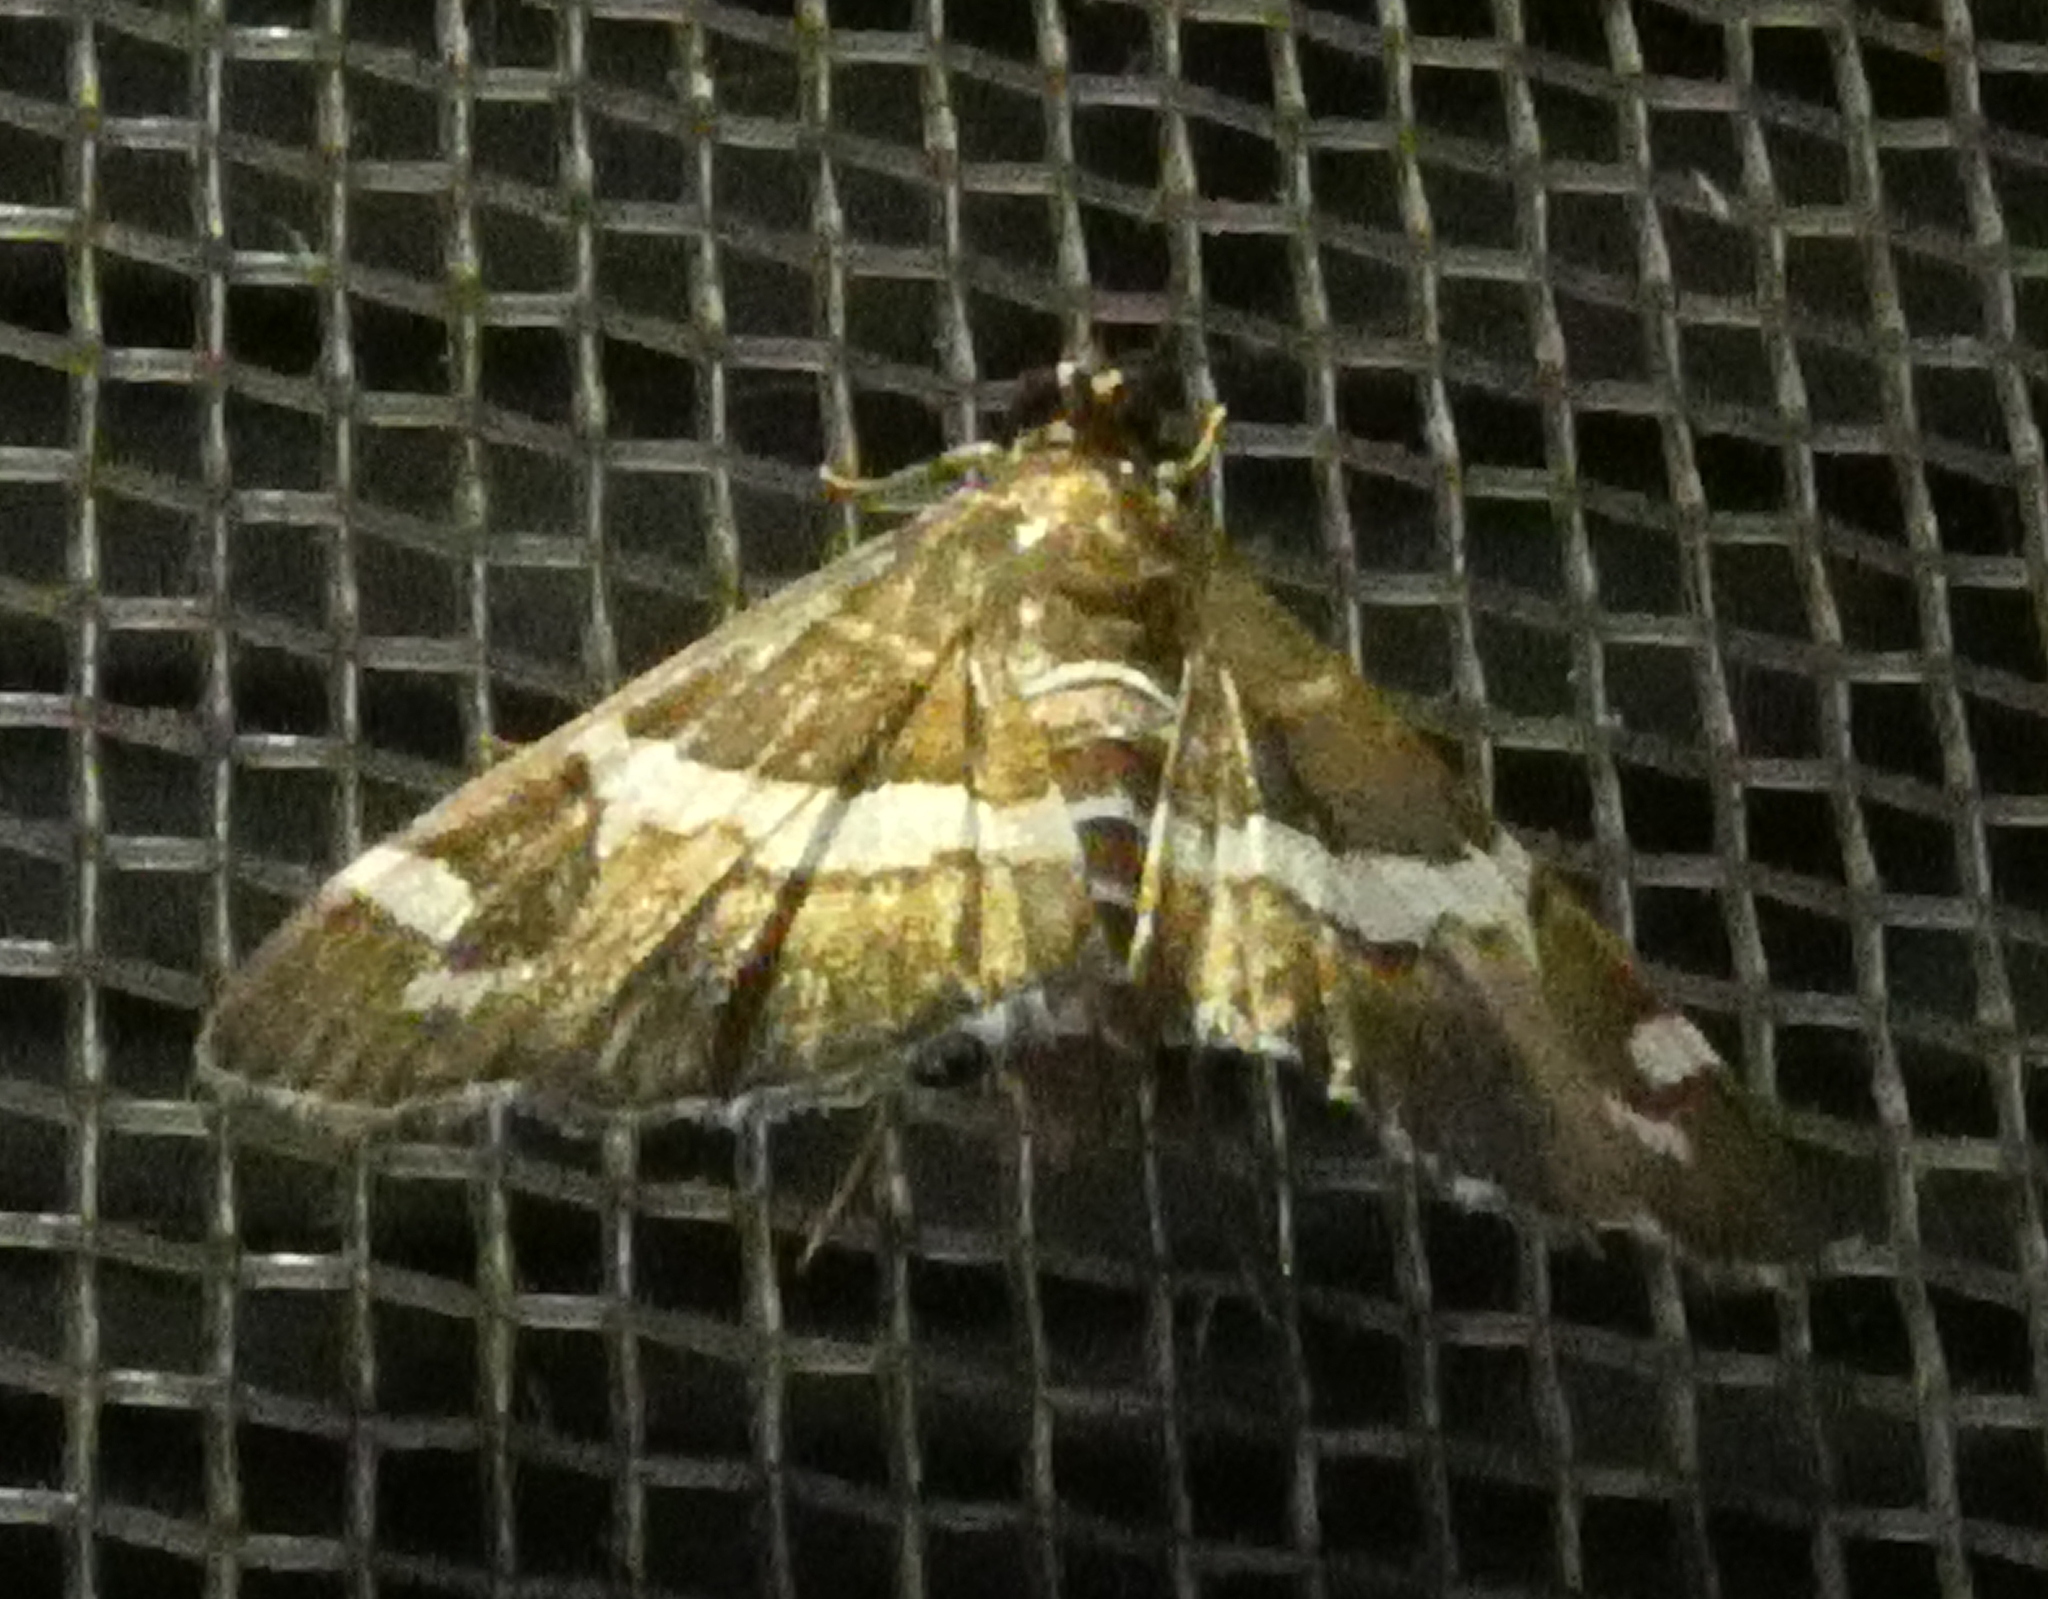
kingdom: Animalia
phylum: Arthropoda
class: Insecta
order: Lepidoptera
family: Crambidae
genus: Spoladea
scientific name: Spoladea recurvalis
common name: Beet webworm moth
